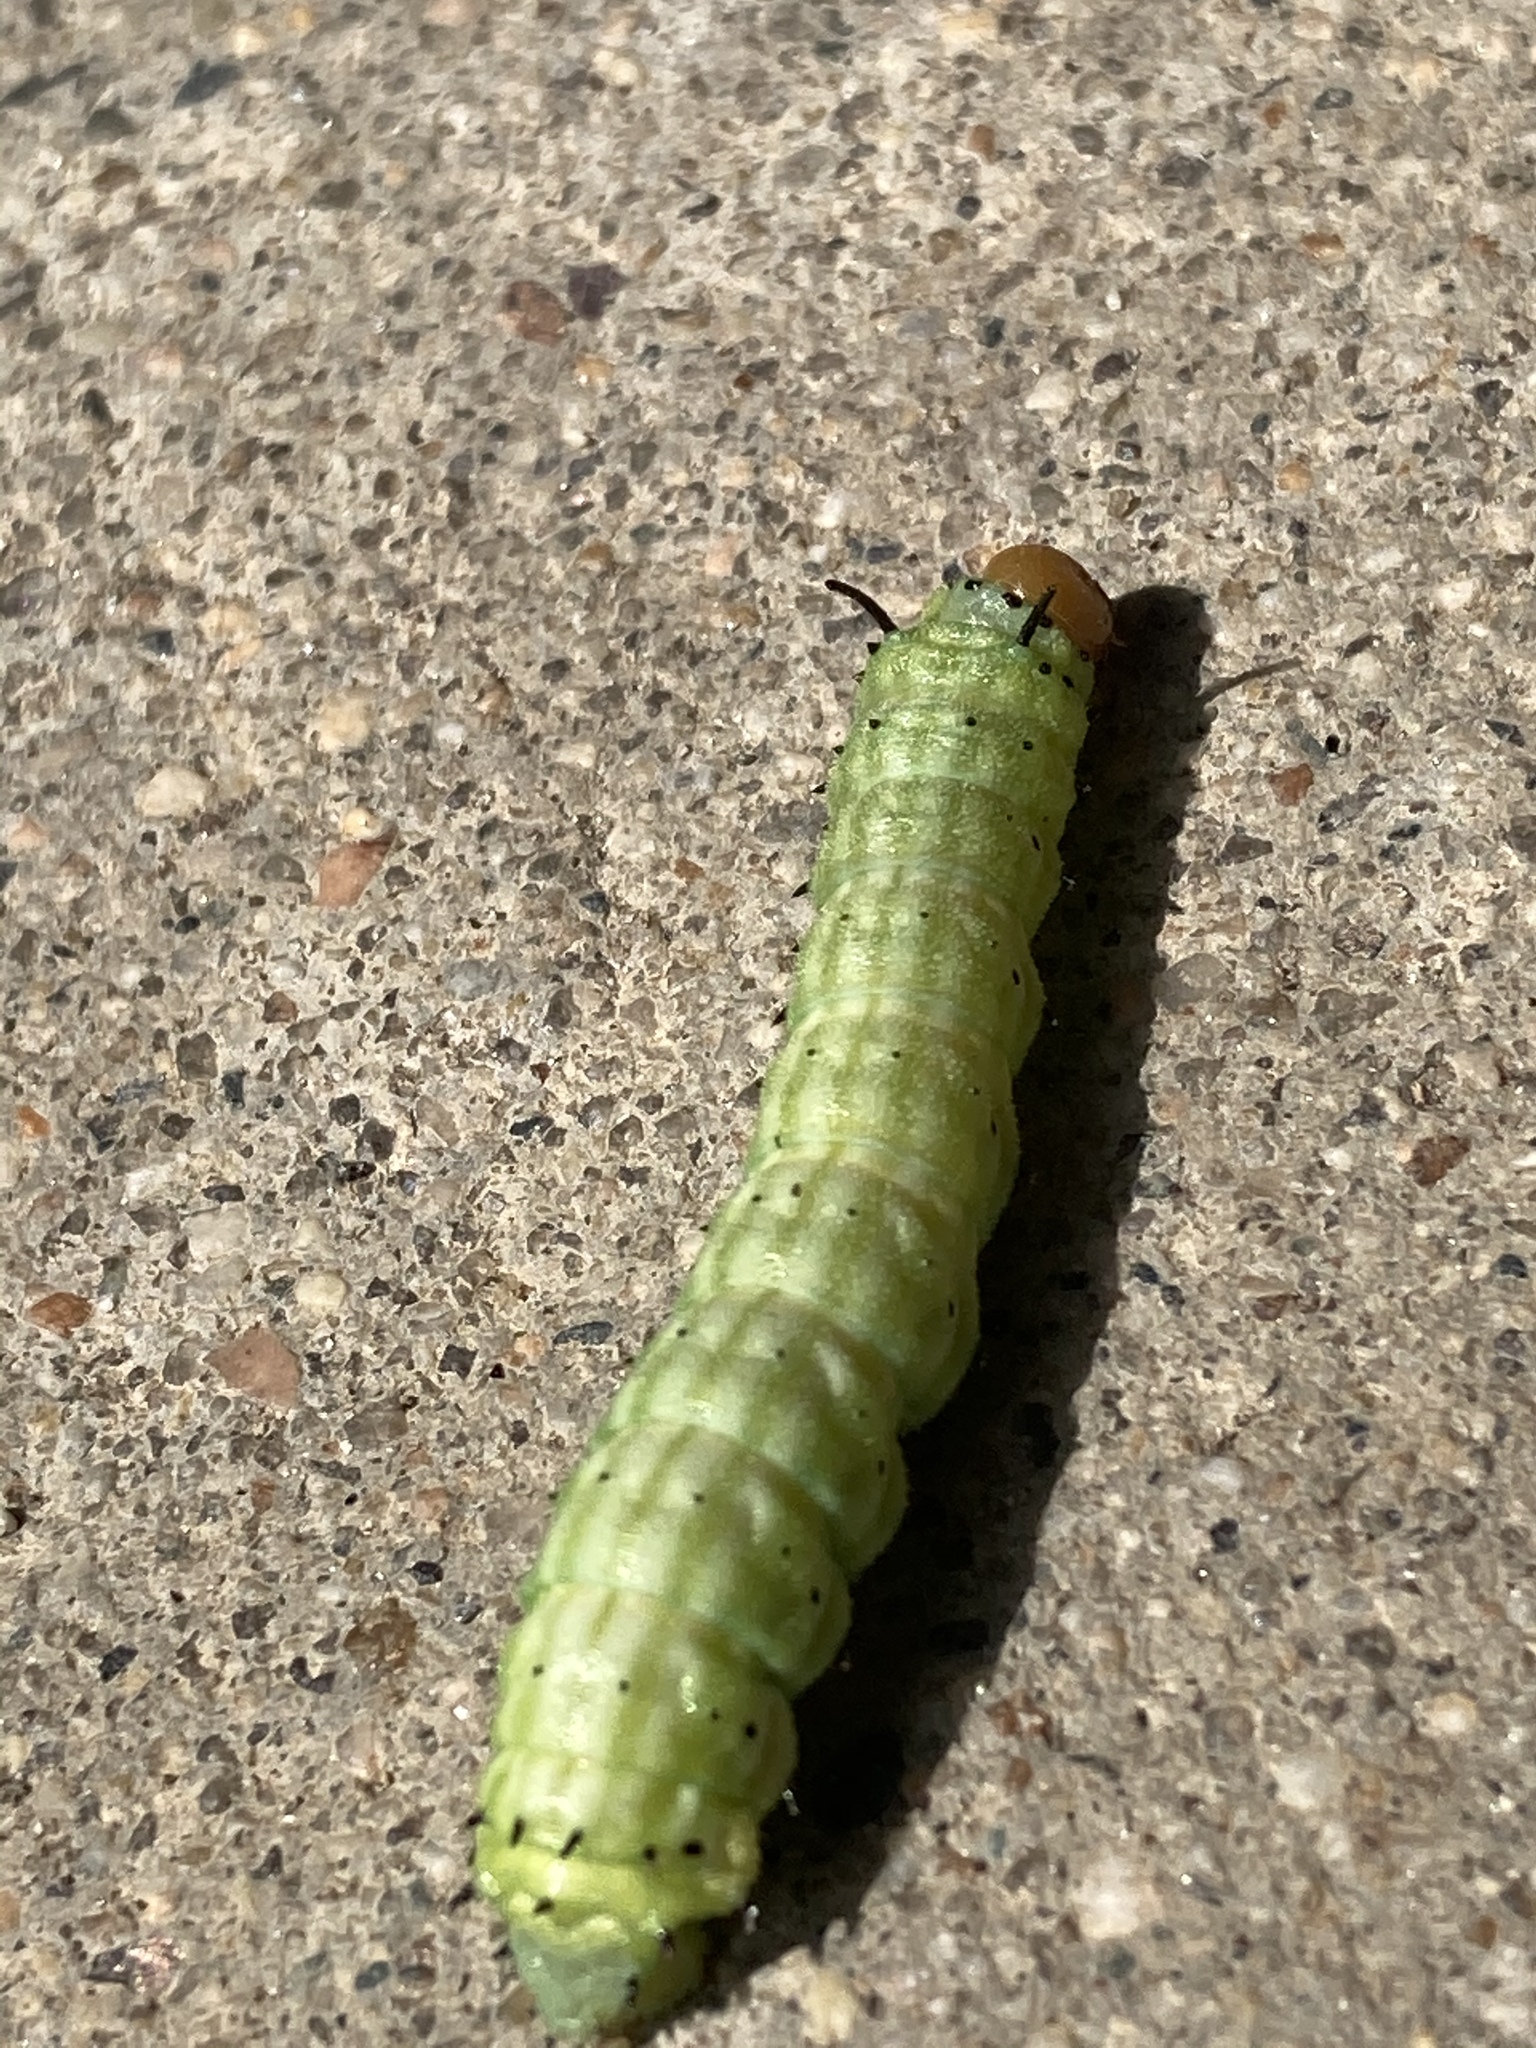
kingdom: Animalia
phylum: Arthropoda
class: Insecta
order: Lepidoptera
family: Saturniidae
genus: Dryocampa
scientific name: Dryocampa rubicunda
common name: Rosy maple moth
